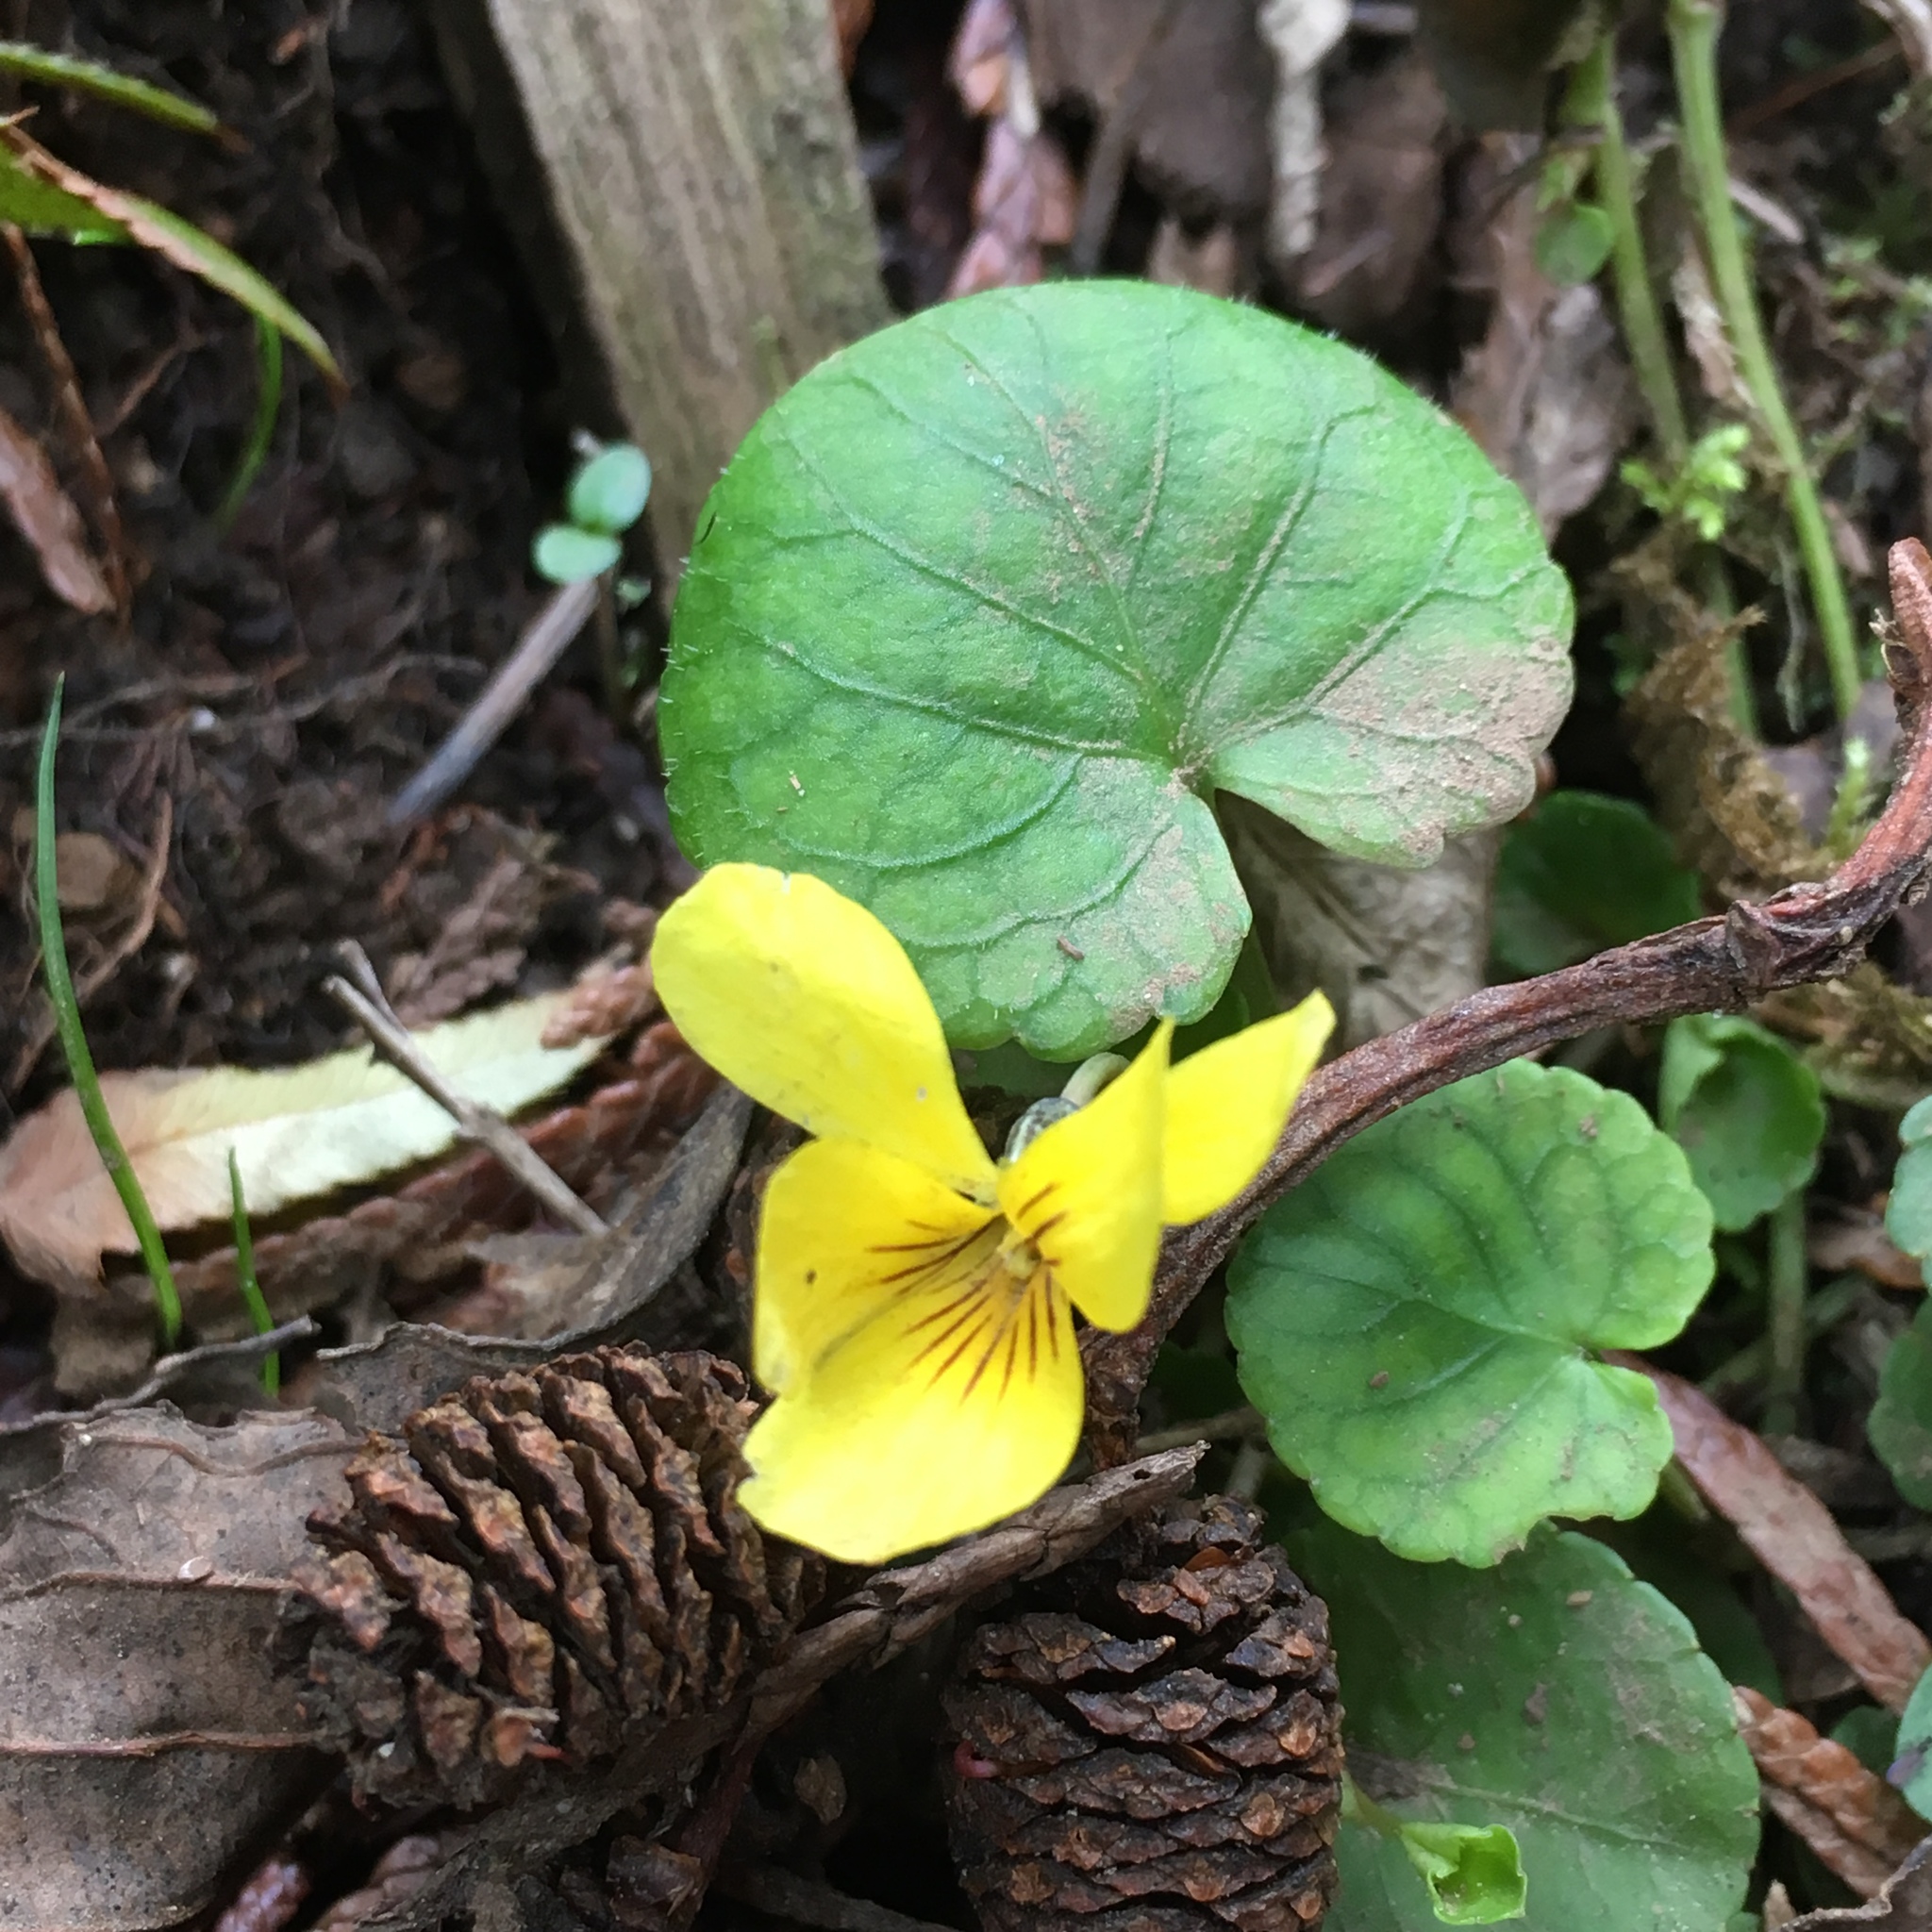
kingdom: Plantae
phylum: Tracheophyta
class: Magnoliopsida
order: Malpighiales
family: Violaceae
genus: Viola
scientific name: Viola sempervirens
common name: Evergreen violet
